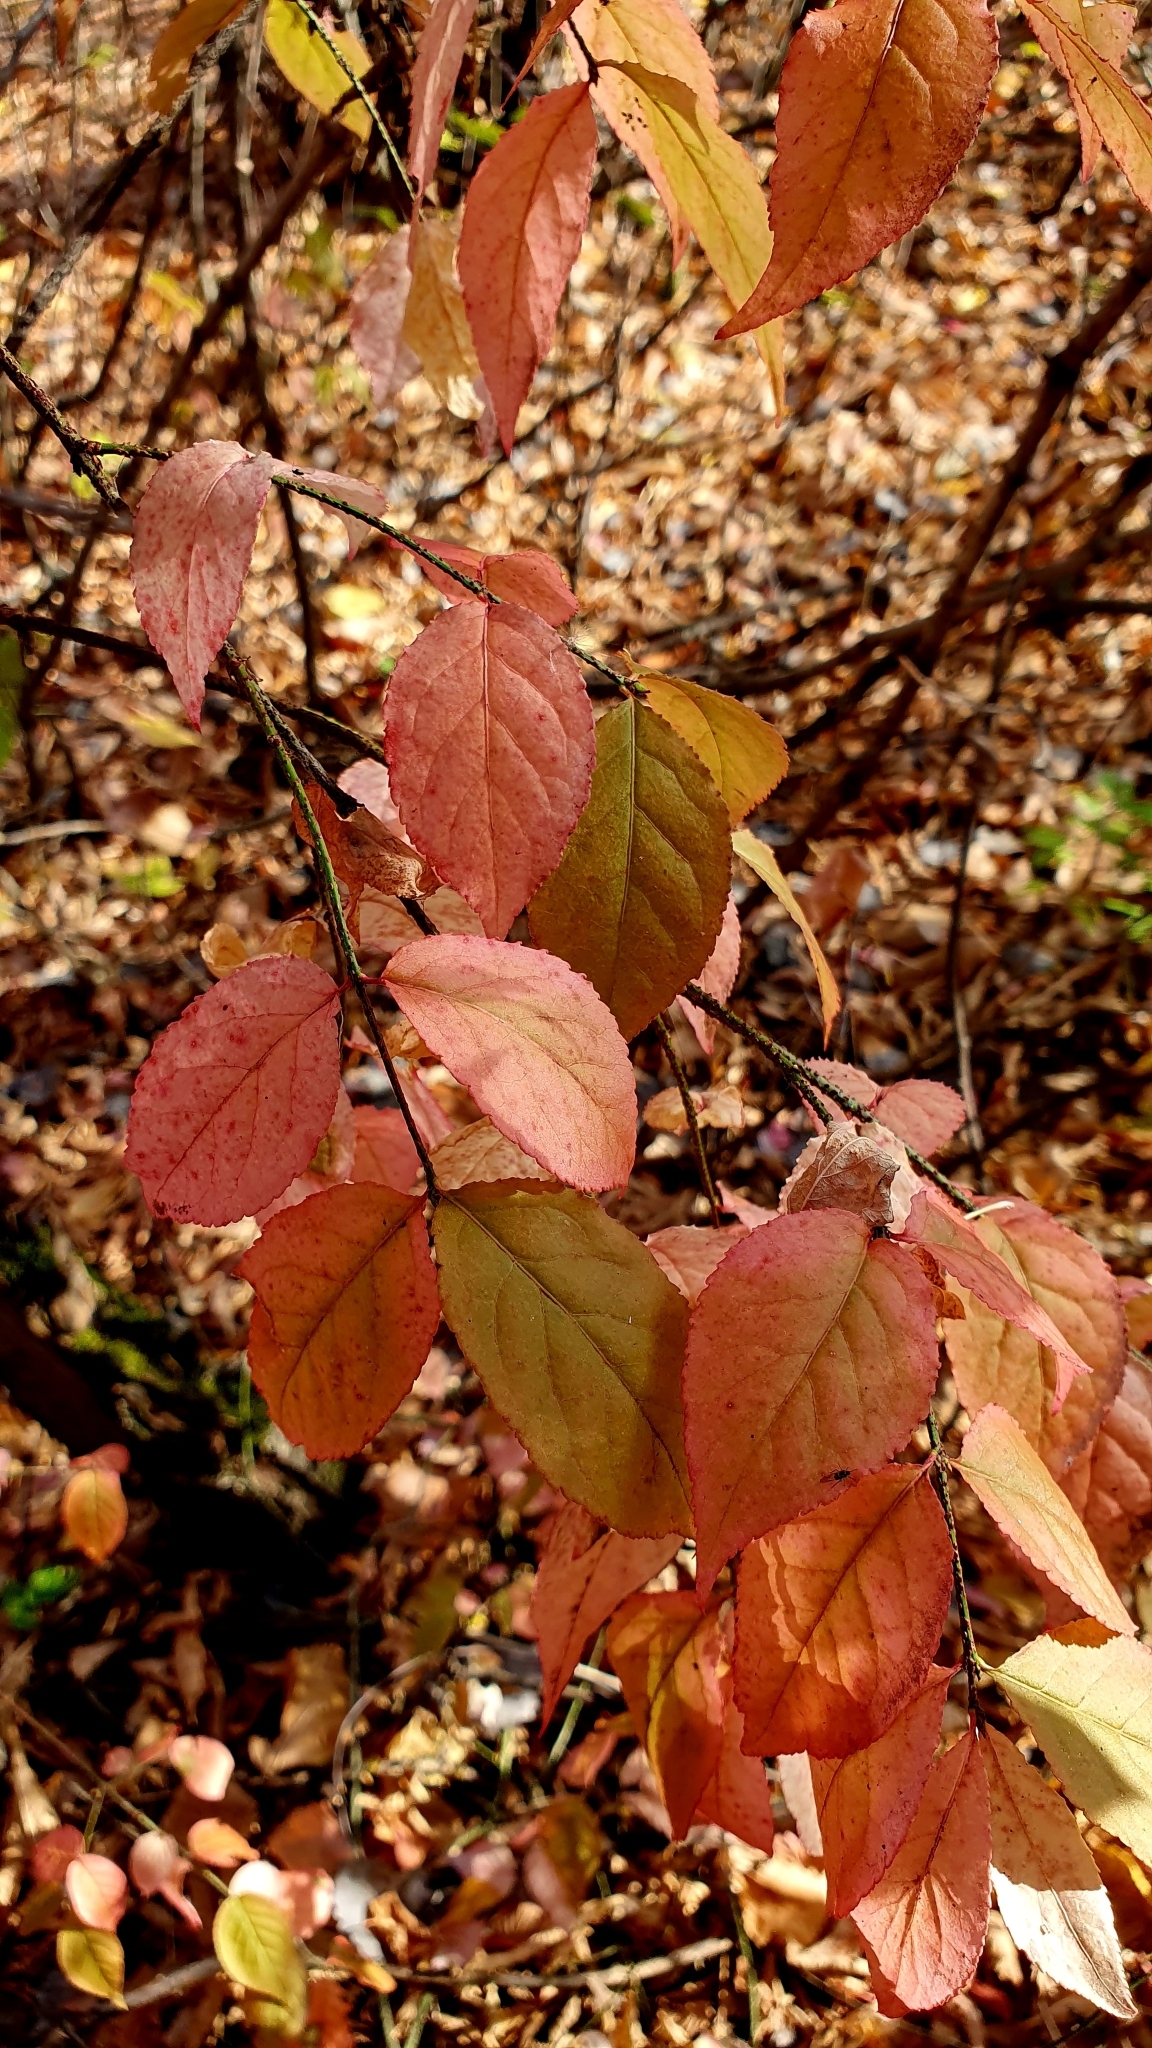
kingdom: Plantae
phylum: Tracheophyta
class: Magnoliopsida
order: Celastrales
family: Celastraceae
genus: Euonymus
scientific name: Euonymus verrucosus
